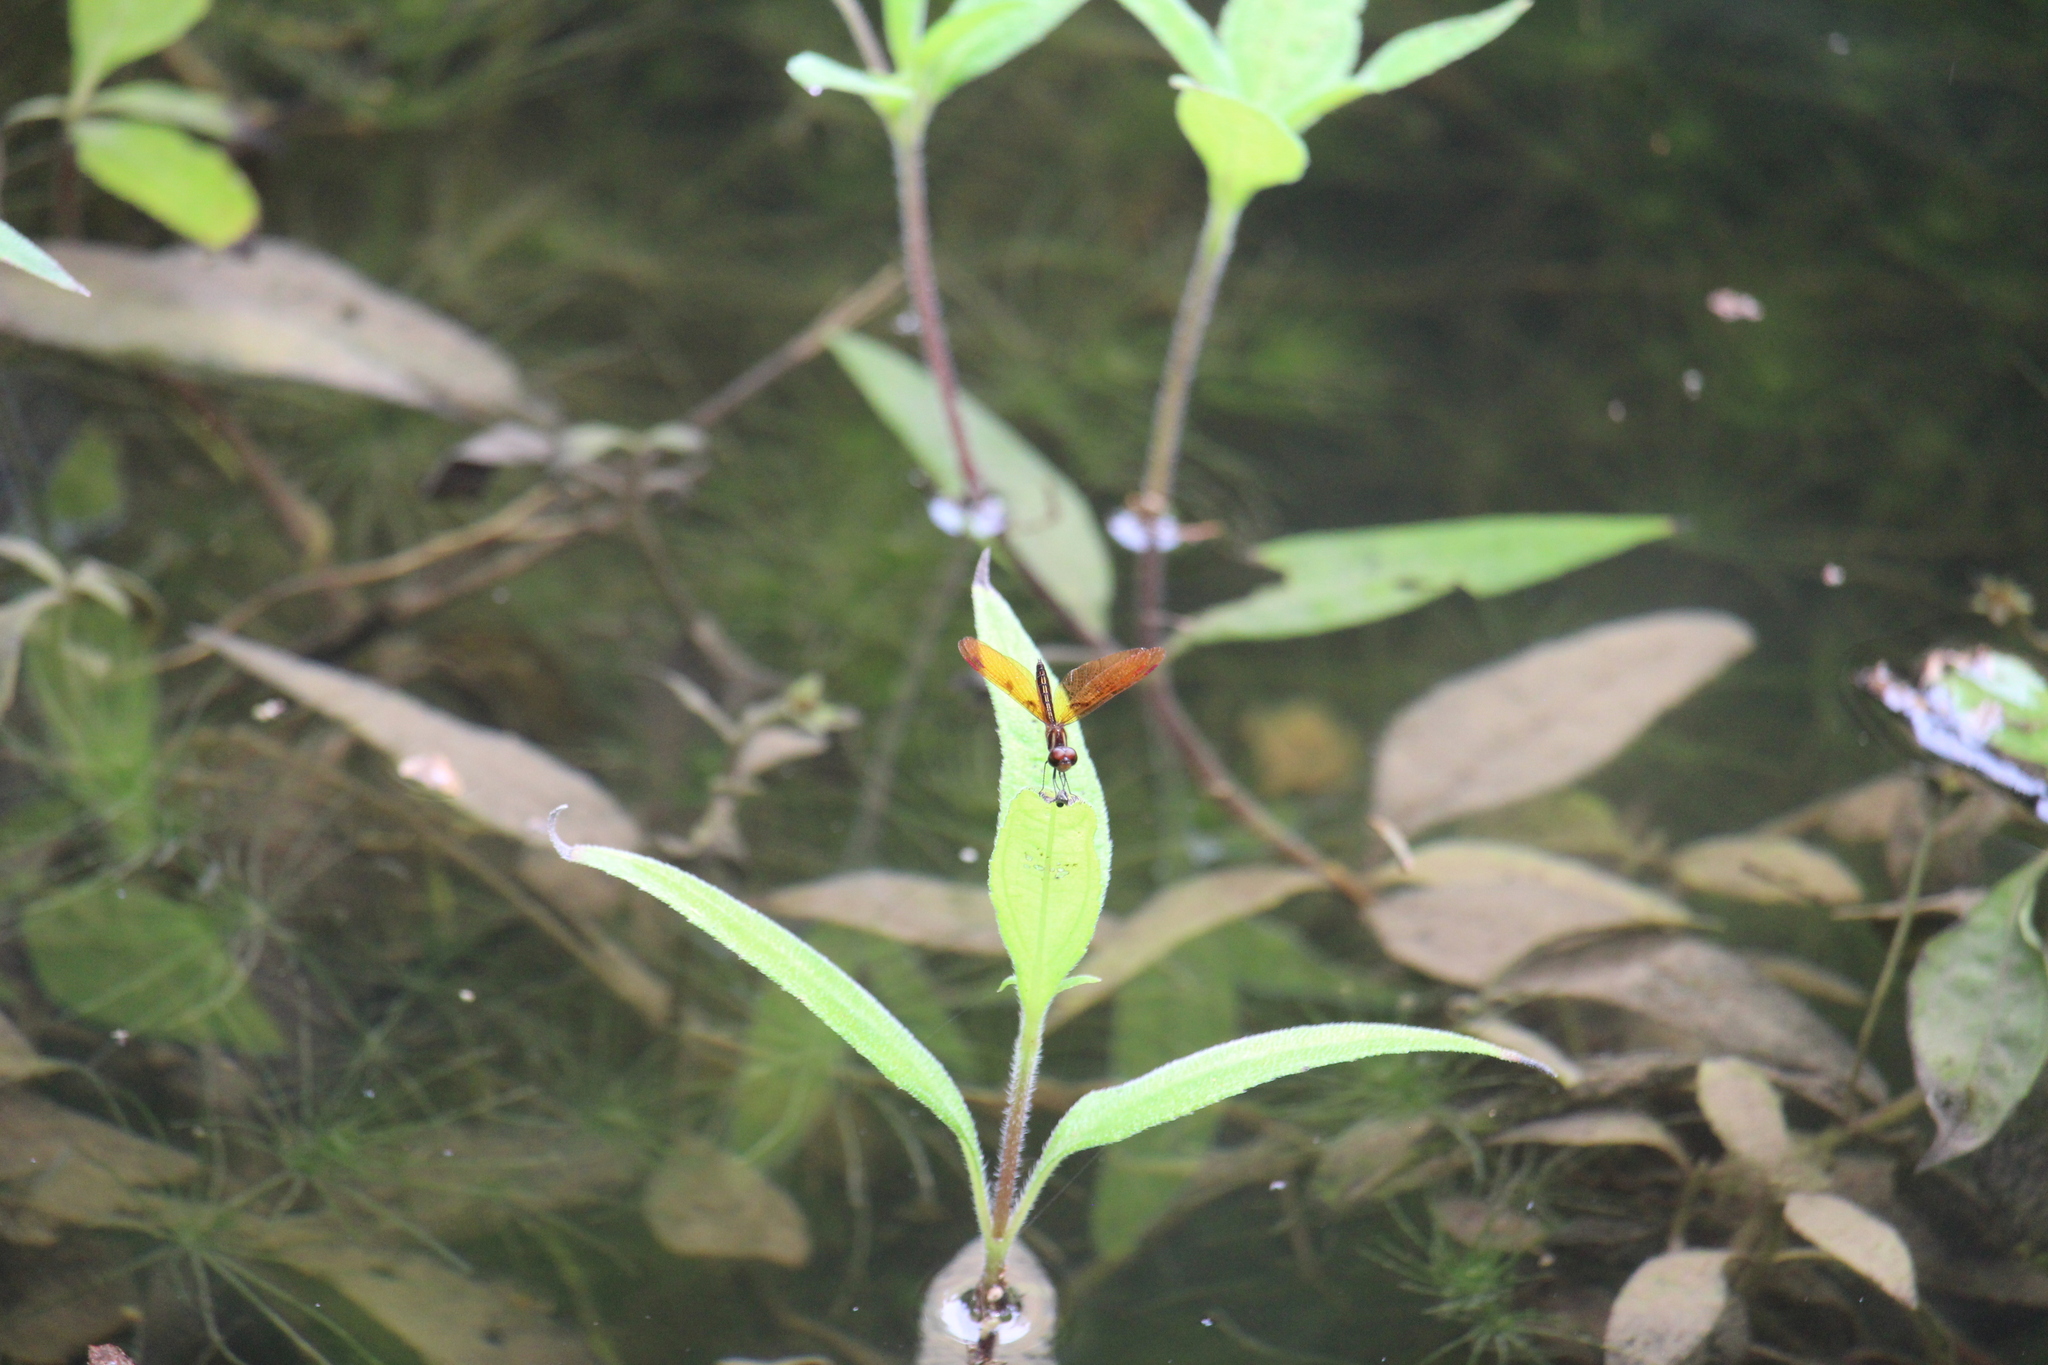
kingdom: Animalia
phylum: Arthropoda
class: Insecta
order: Odonata
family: Libellulidae
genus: Perithemis
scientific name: Perithemis domitia
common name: Slough amberwing
